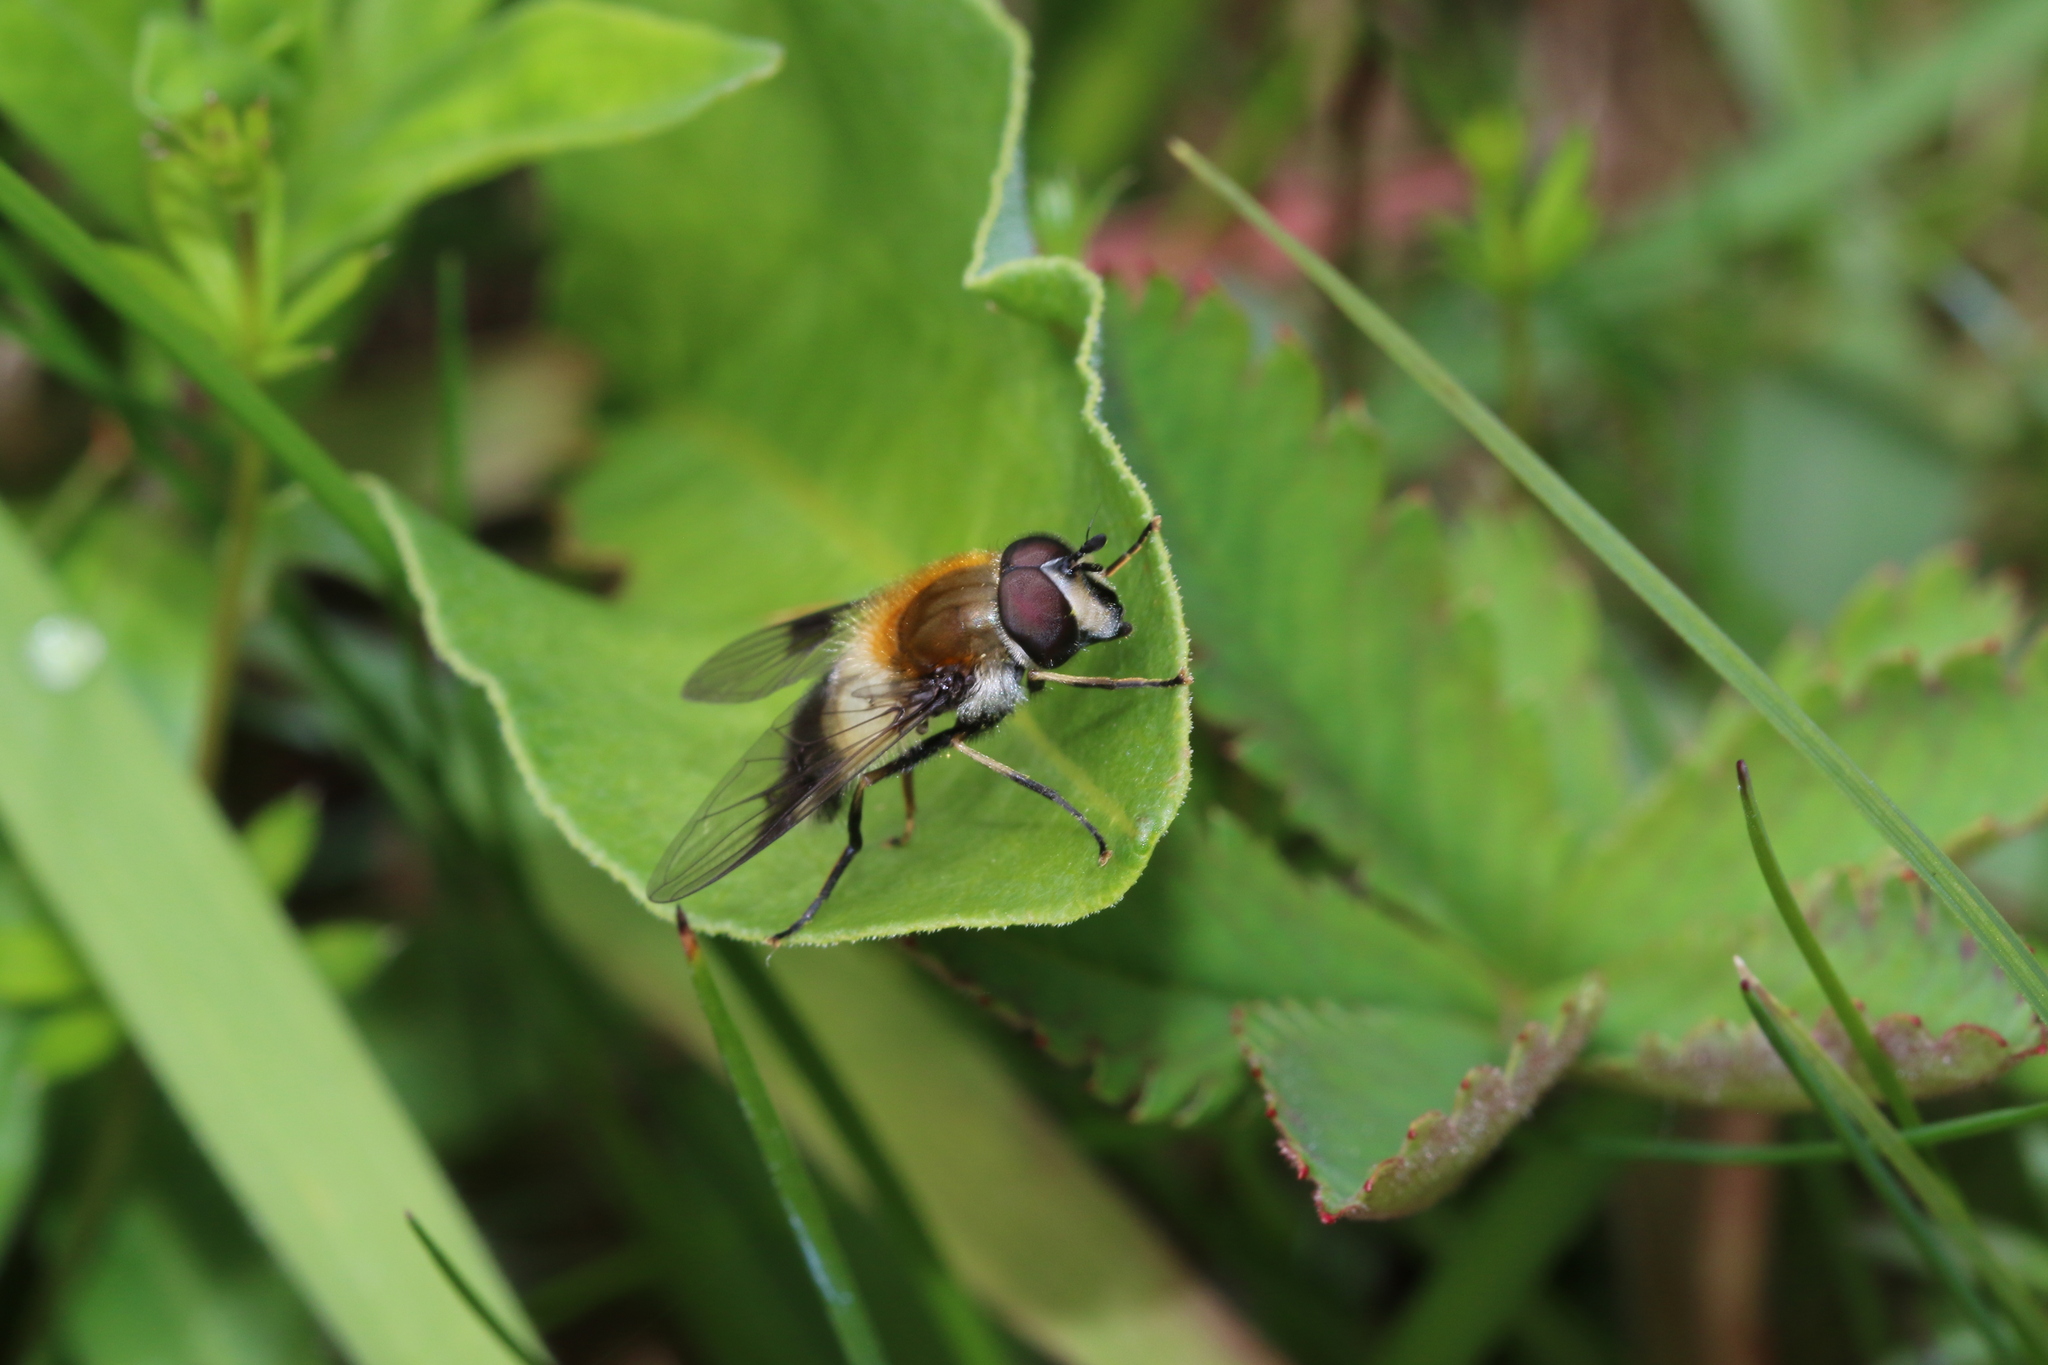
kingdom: Animalia
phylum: Arthropoda
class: Insecta
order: Diptera
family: Syrphidae
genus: Leucozona
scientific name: Leucozona lucorum
